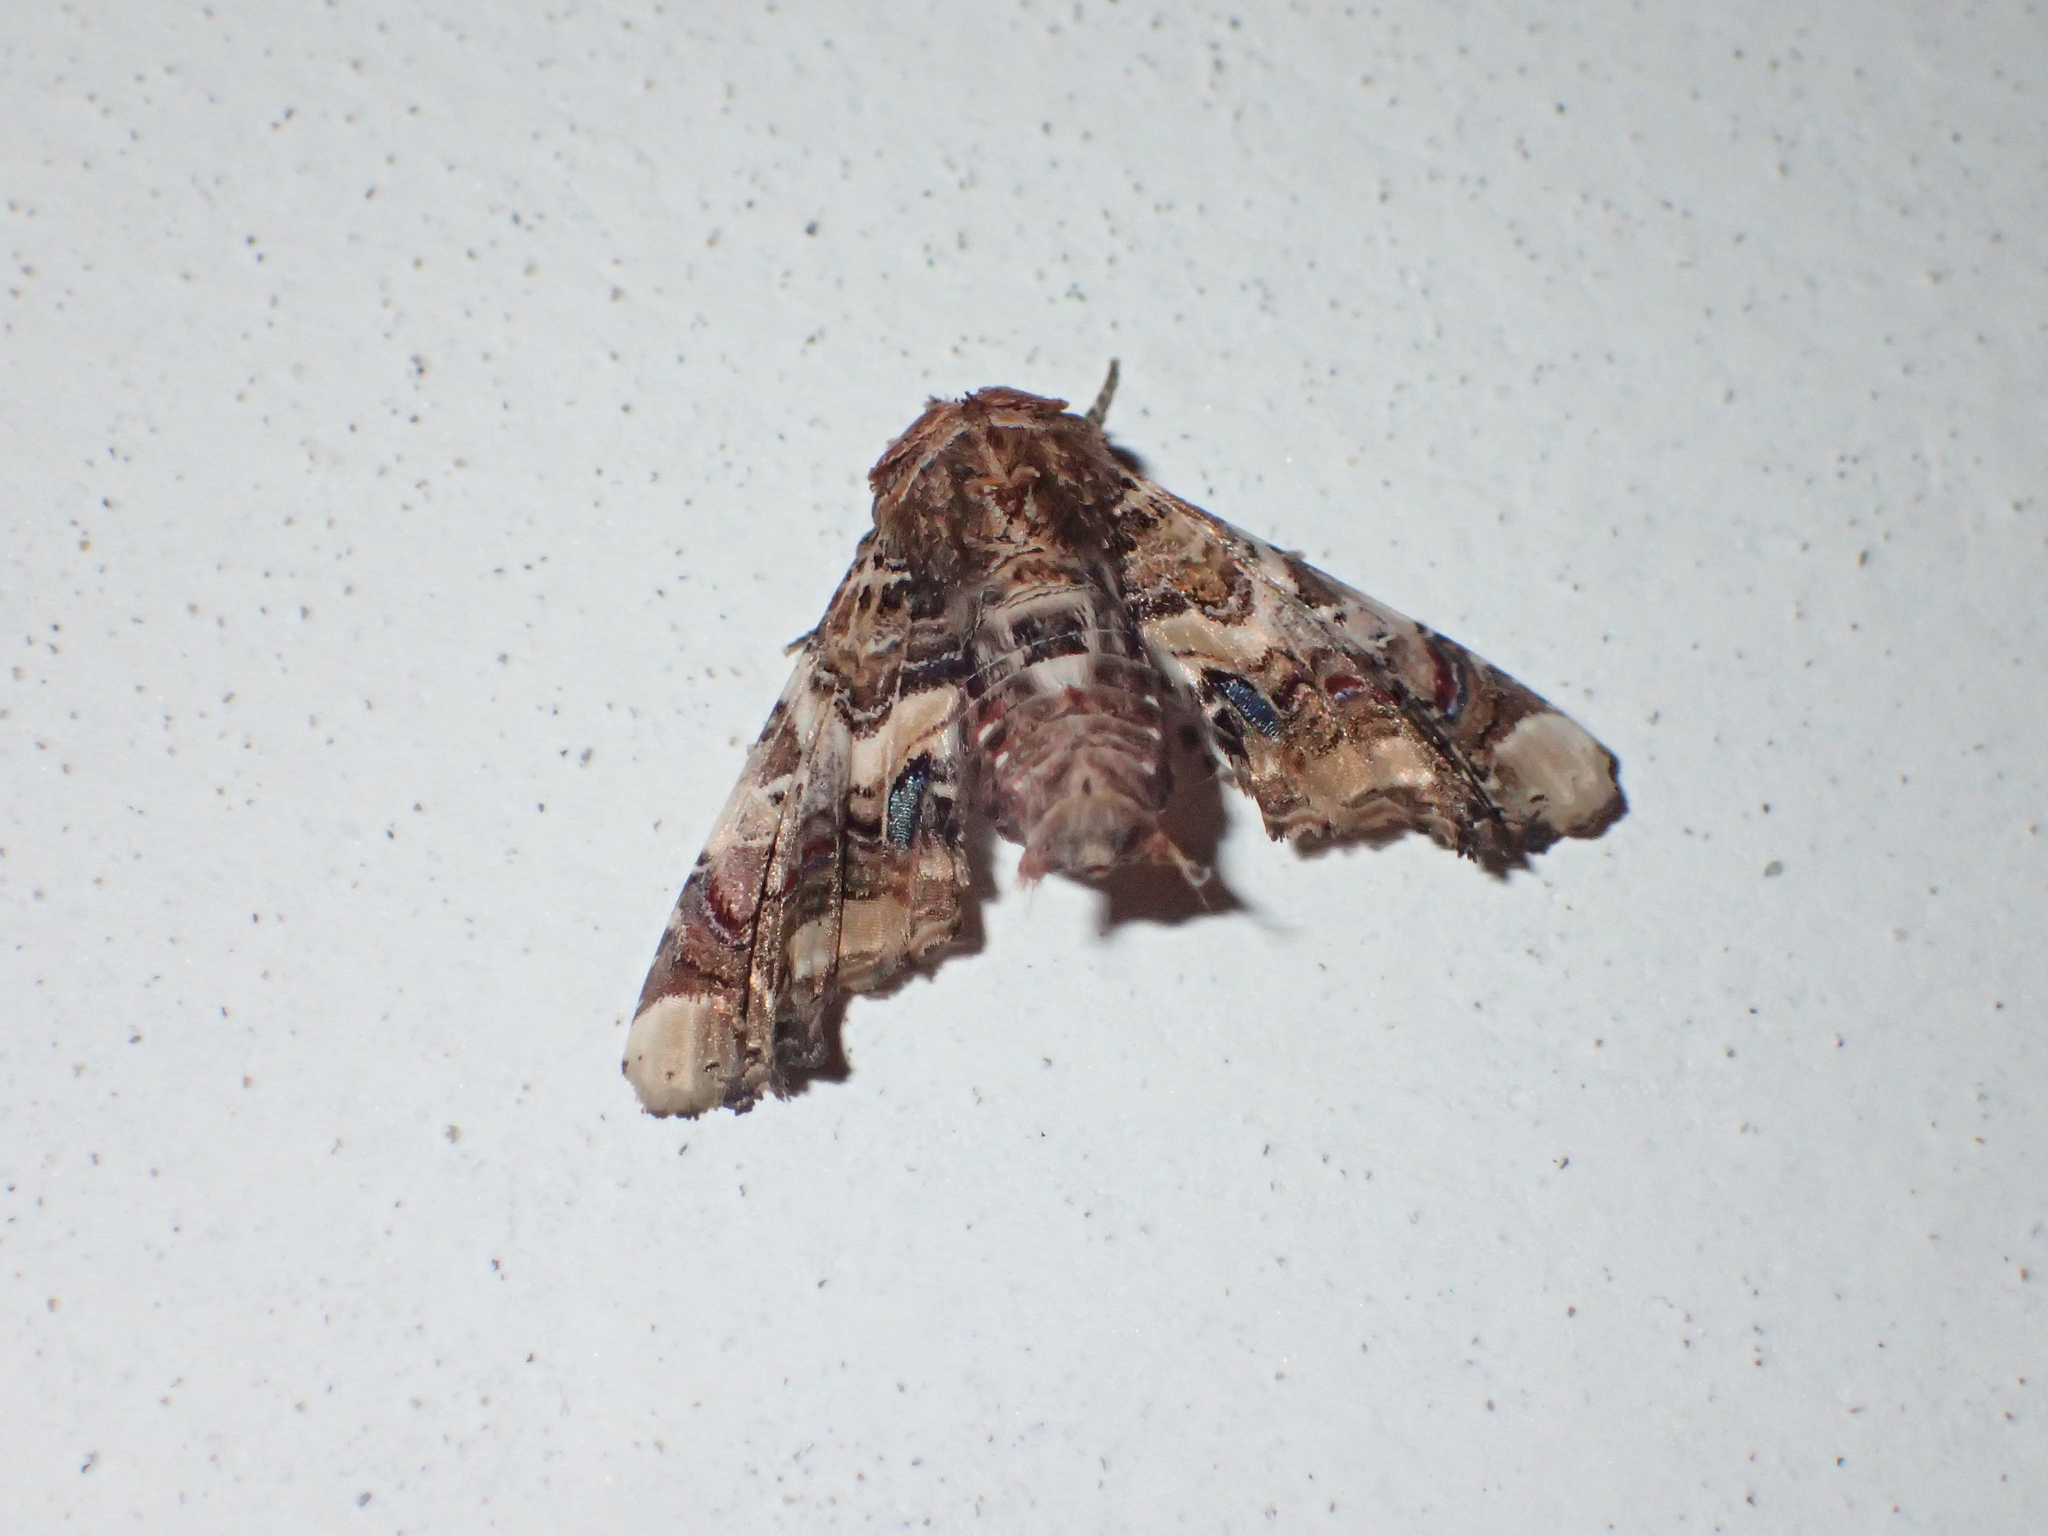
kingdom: Animalia
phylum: Arthropoda
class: Insecta
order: Lepidoptera
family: Euteliidae
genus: Eutelia
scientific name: Eutelia adulatrix
